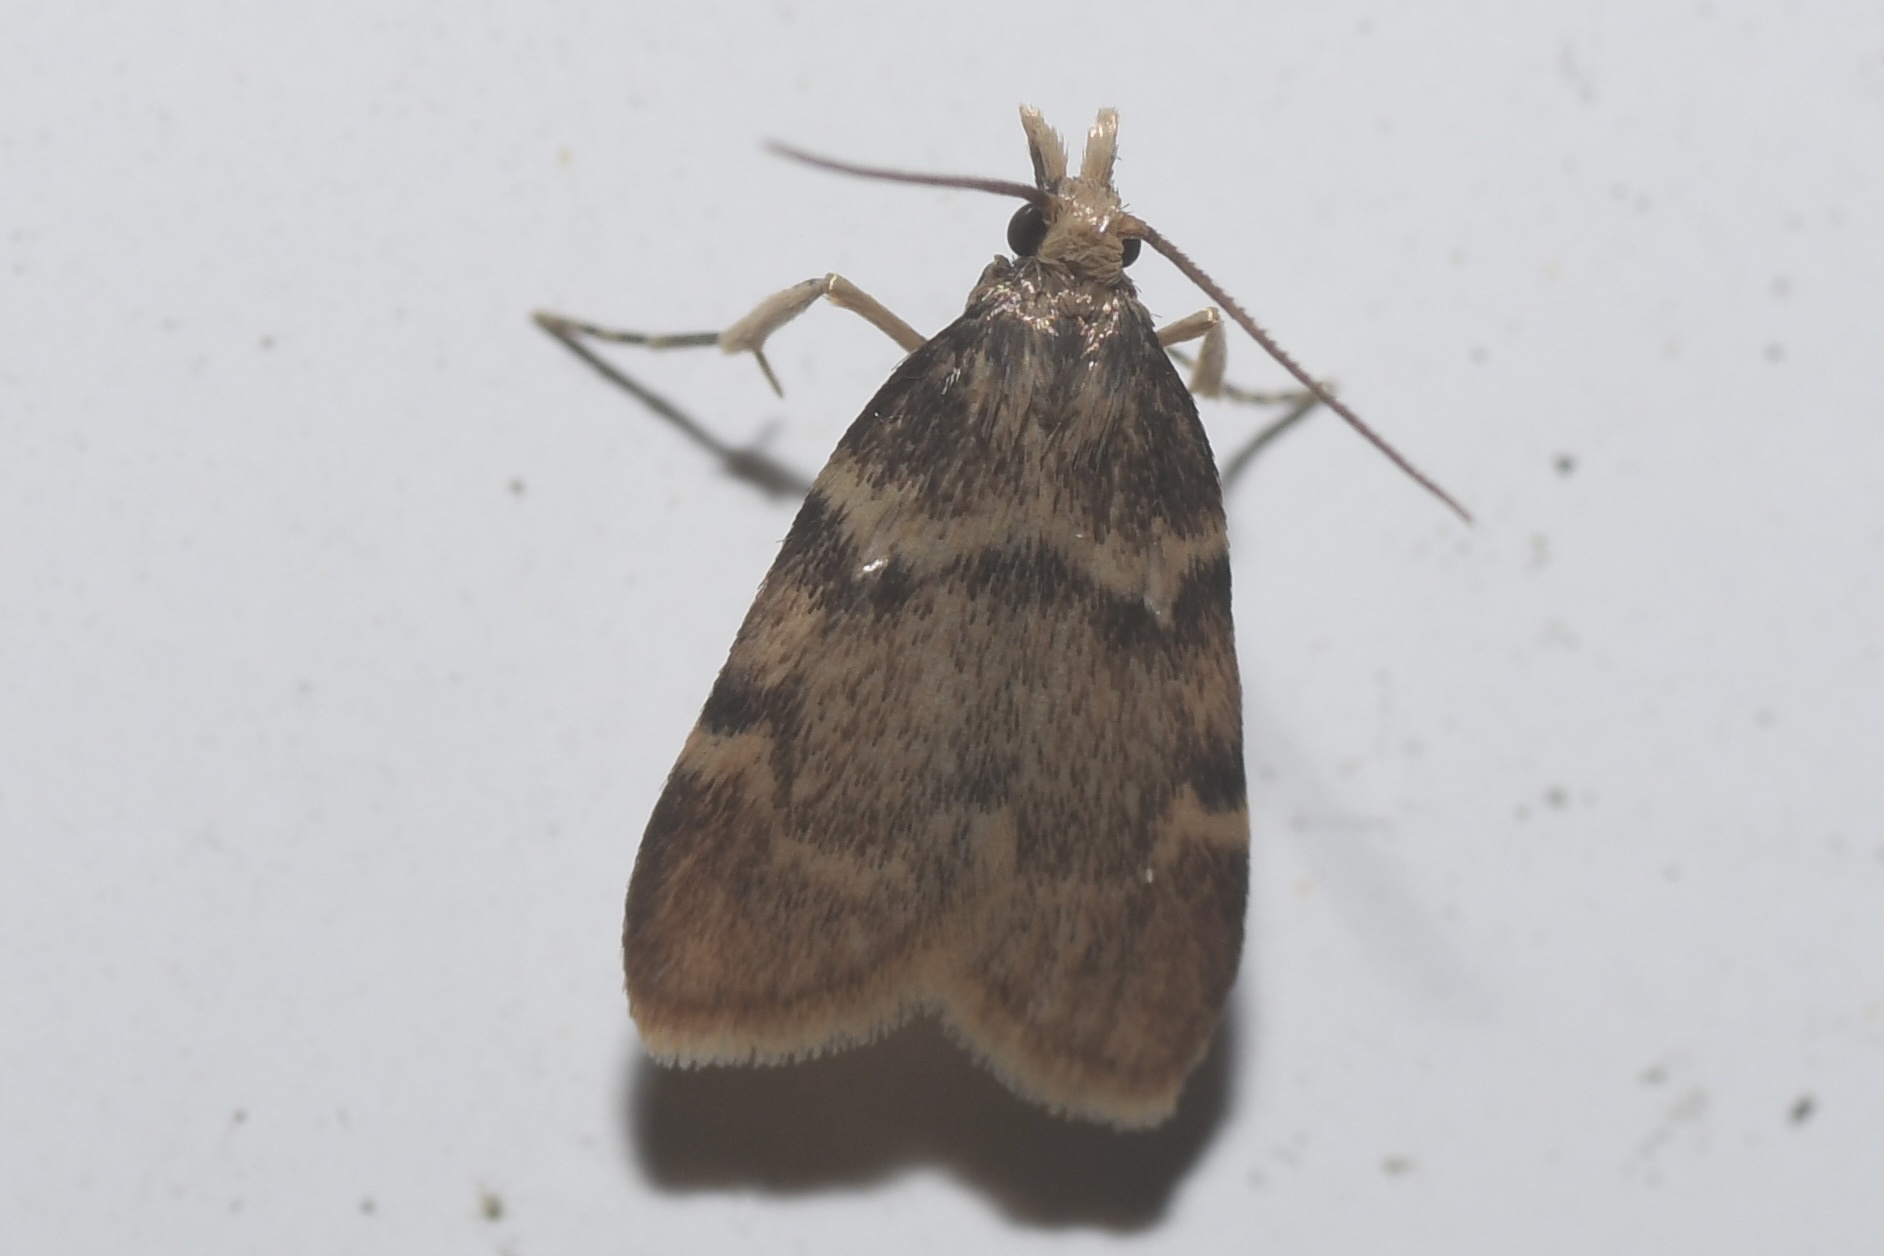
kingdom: Animalia
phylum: Arthropoda
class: Insecta
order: Lepidoptera
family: Pyralidae
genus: Acallis
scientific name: Acallis alticolalis
